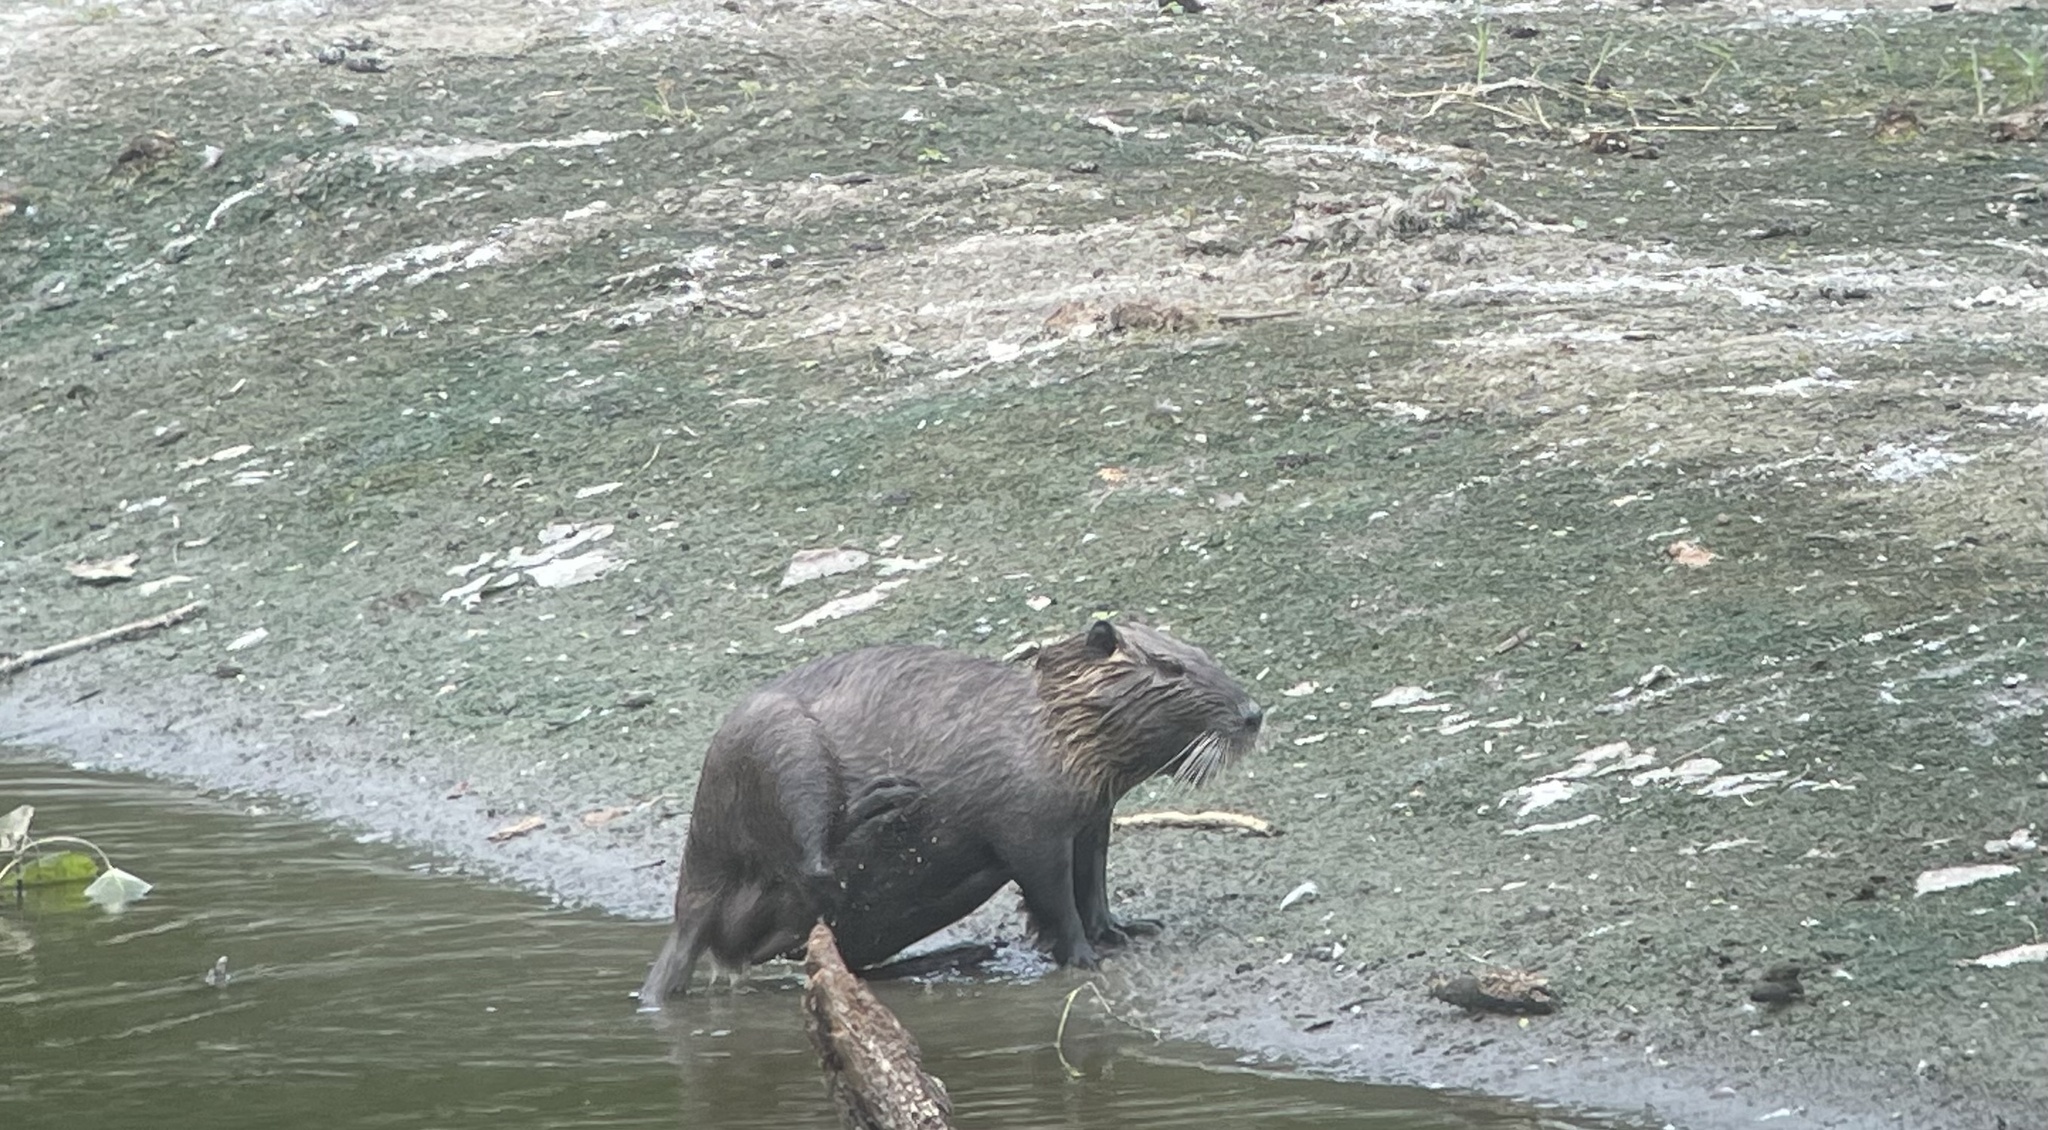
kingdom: Animalia
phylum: Chordata
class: Mammalia
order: Rodentia
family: Myocastoridae
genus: Myocastor
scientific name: Myocastor coypus
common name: Coypu
